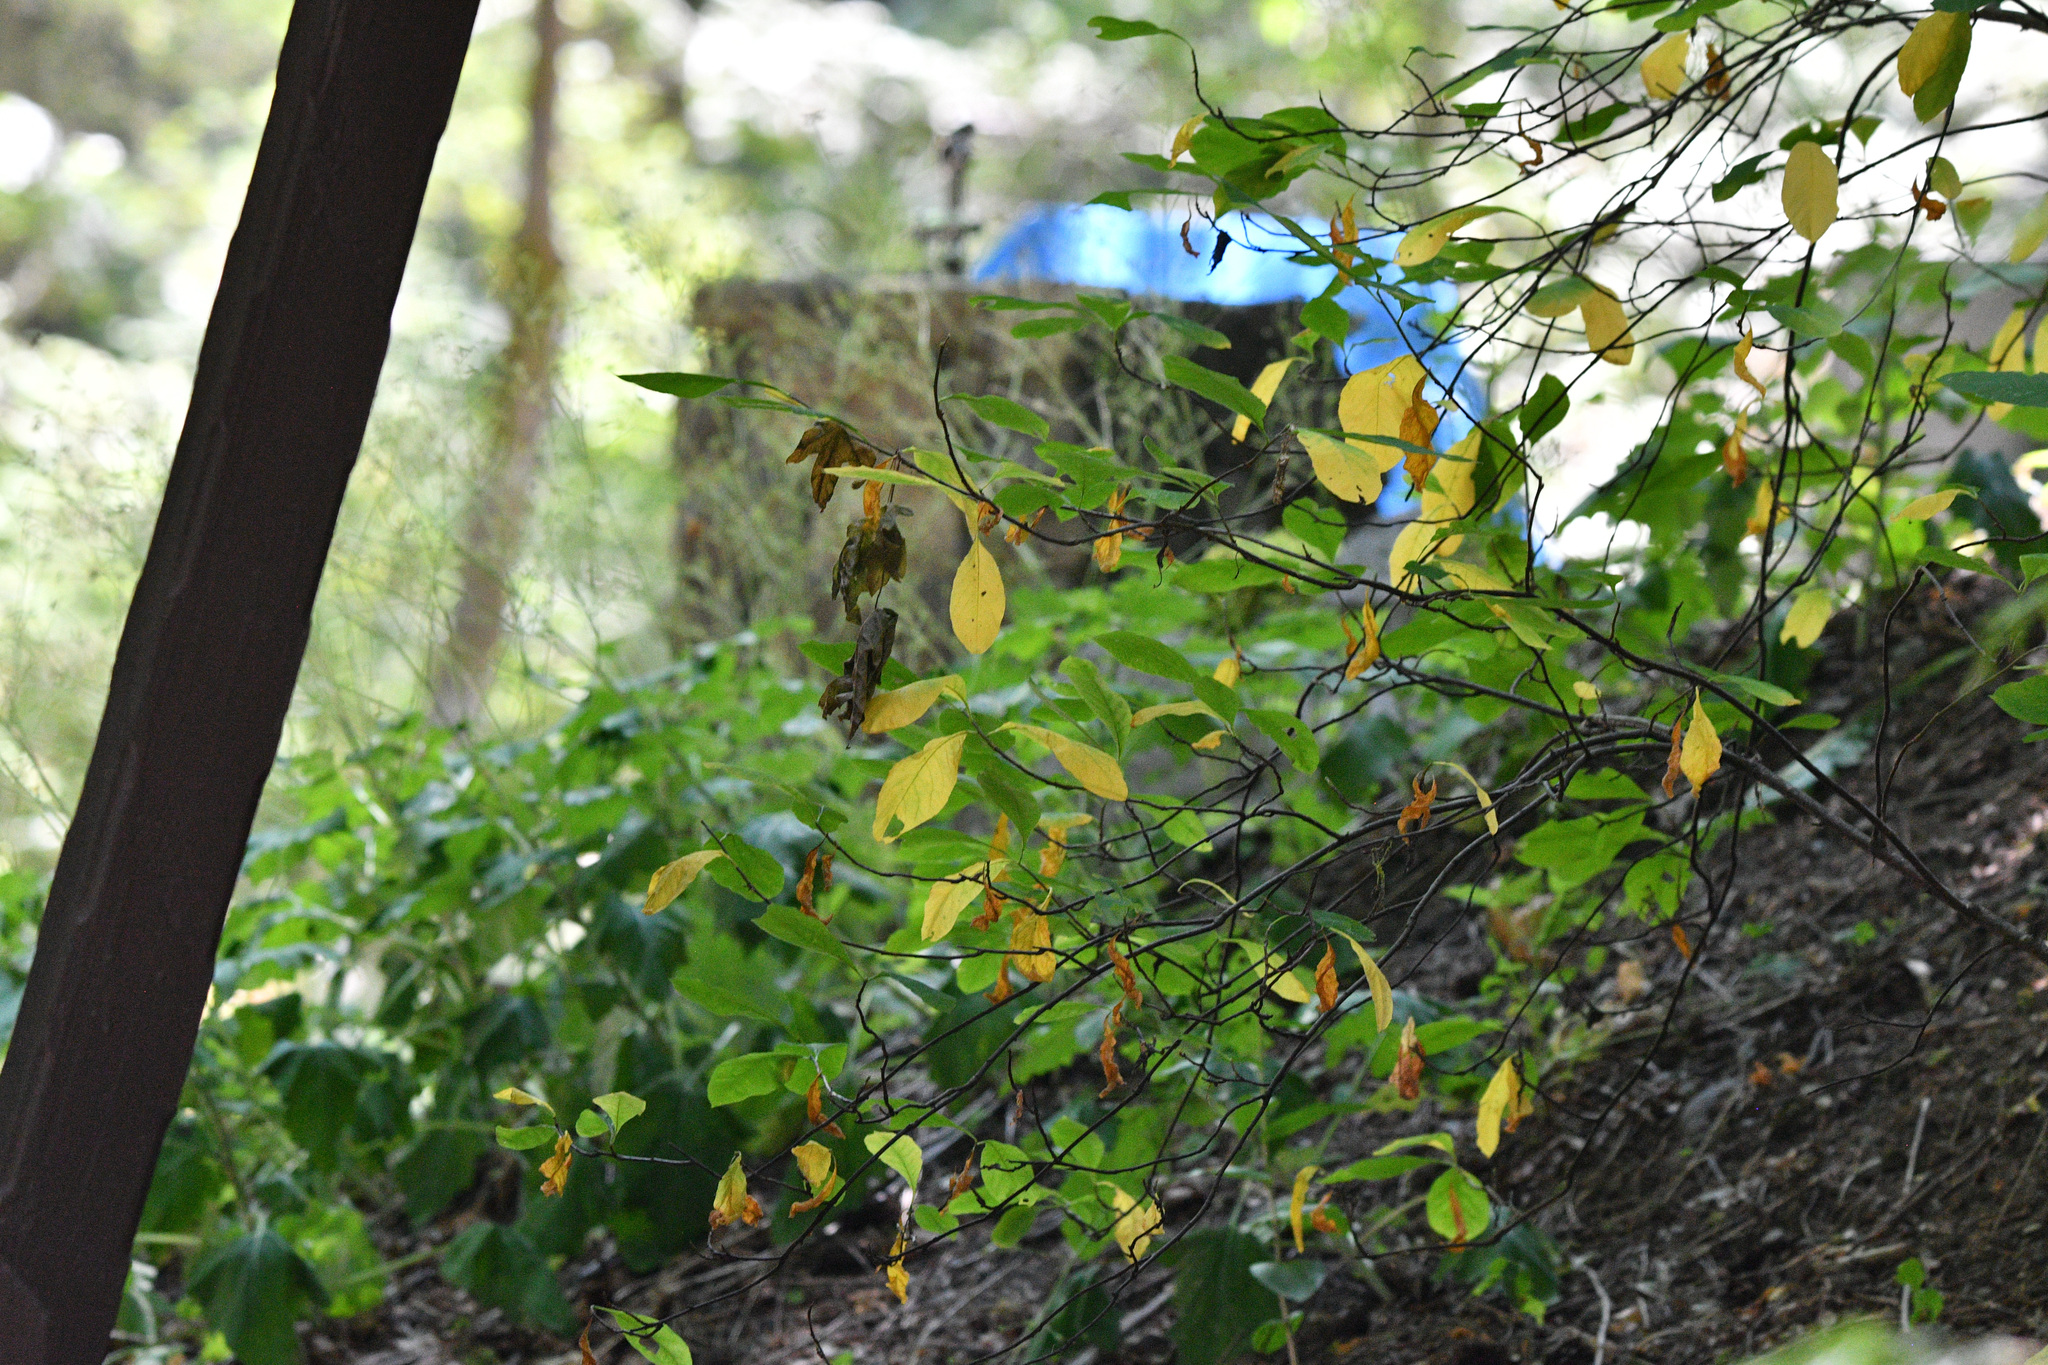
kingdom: Plantae
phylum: Tracheophyta
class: Magnoliopsida
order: Rosales
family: Rosaceae
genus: Oemleria
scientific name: Oemleria cerasiformis
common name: Osoberry
